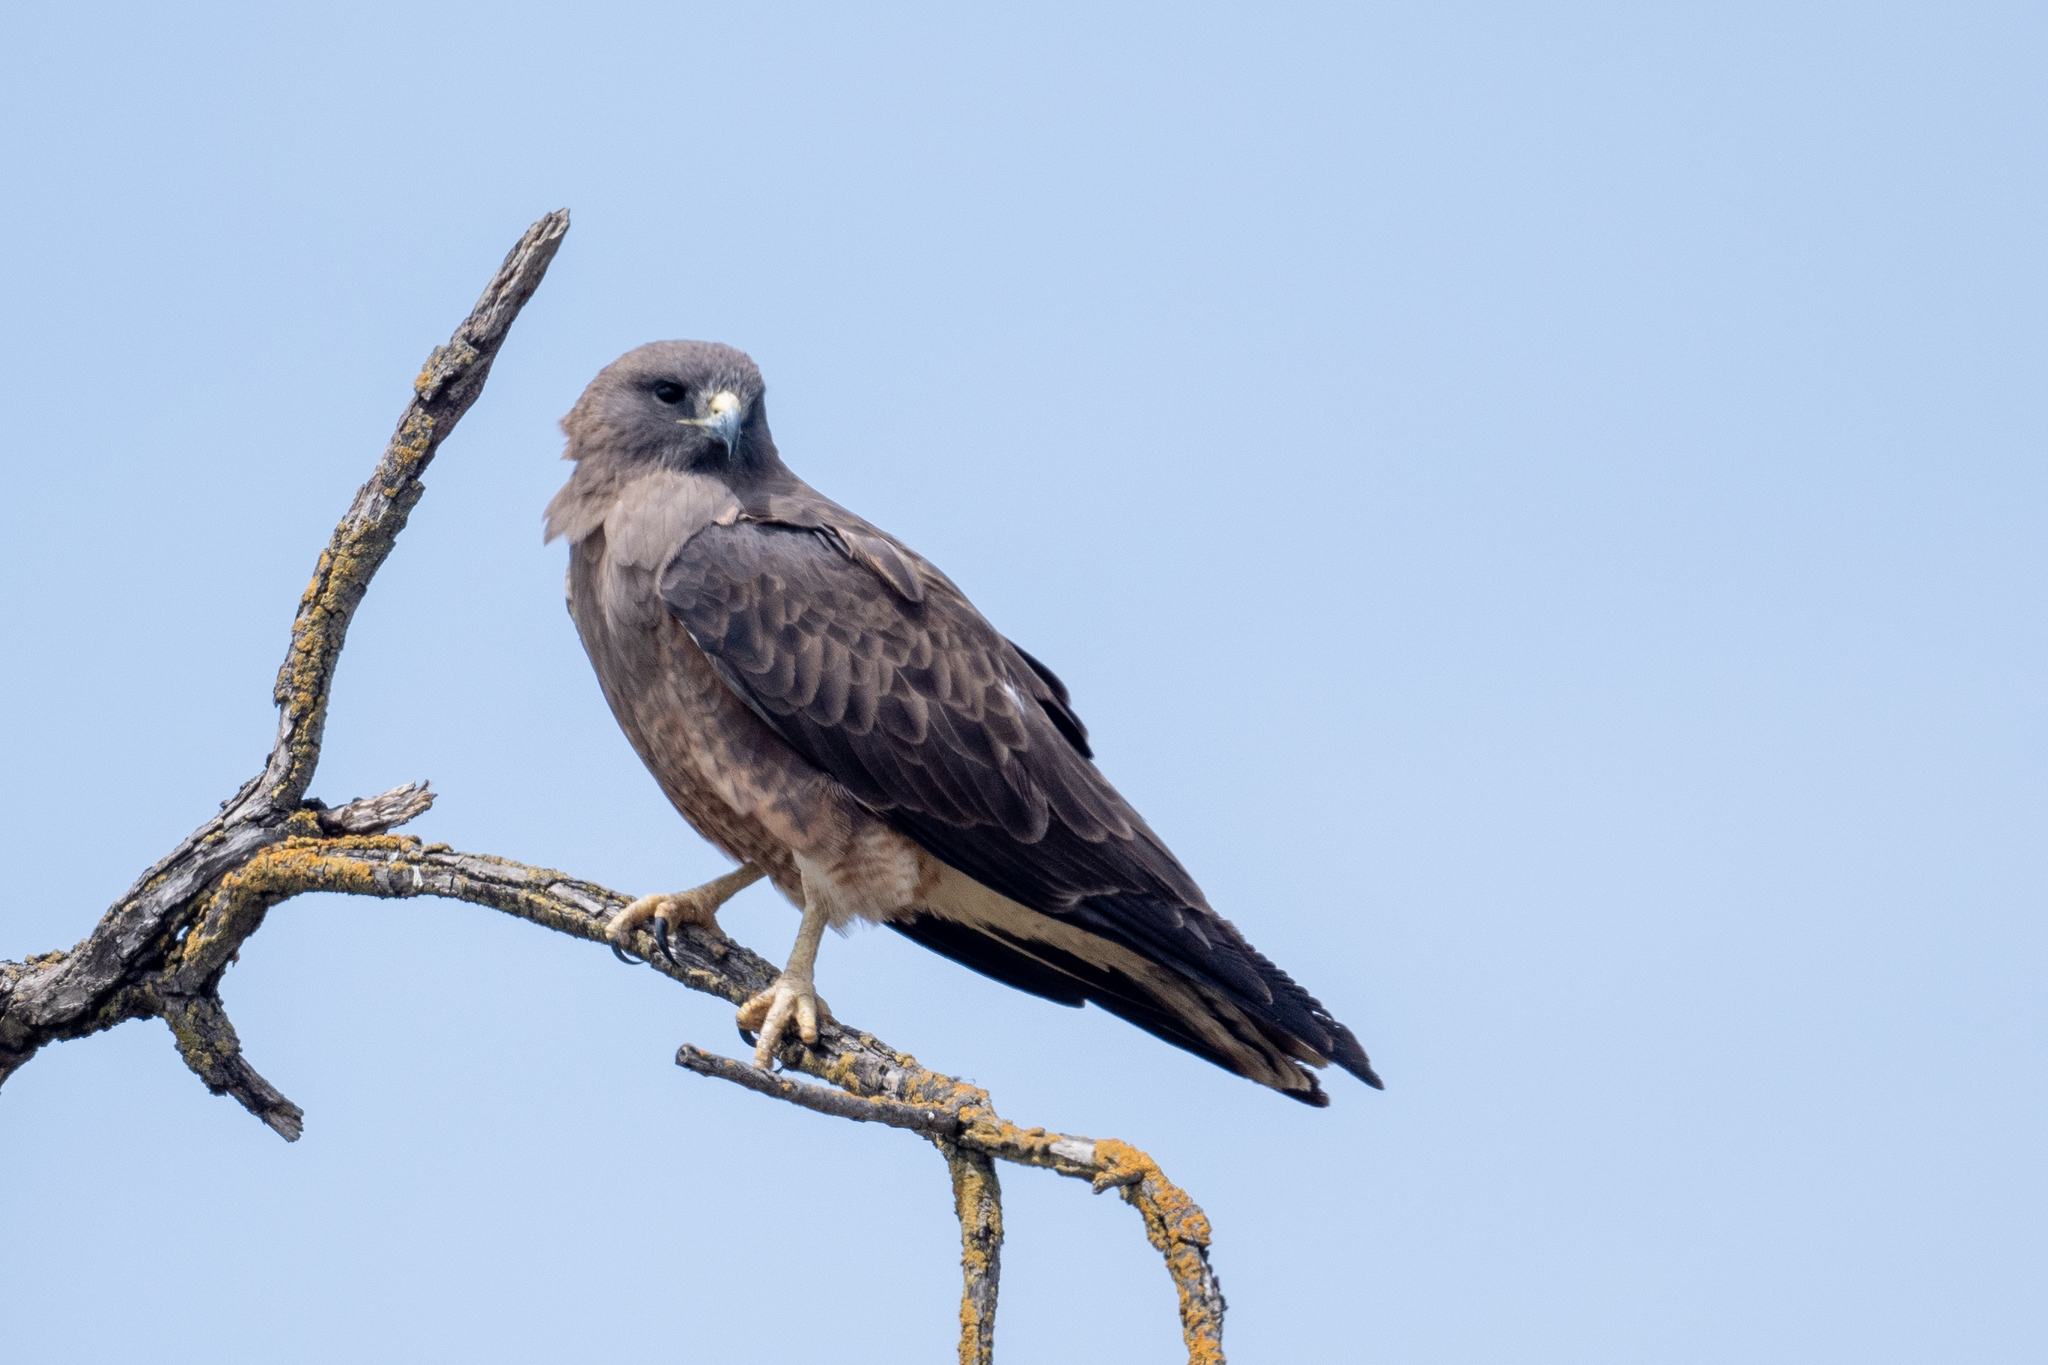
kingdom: Animalia
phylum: Chordata
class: Aves
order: Accipitriformes
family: Accipitridae
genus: Buteo
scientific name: Buteo swainsoni
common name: Swainson's hawk
